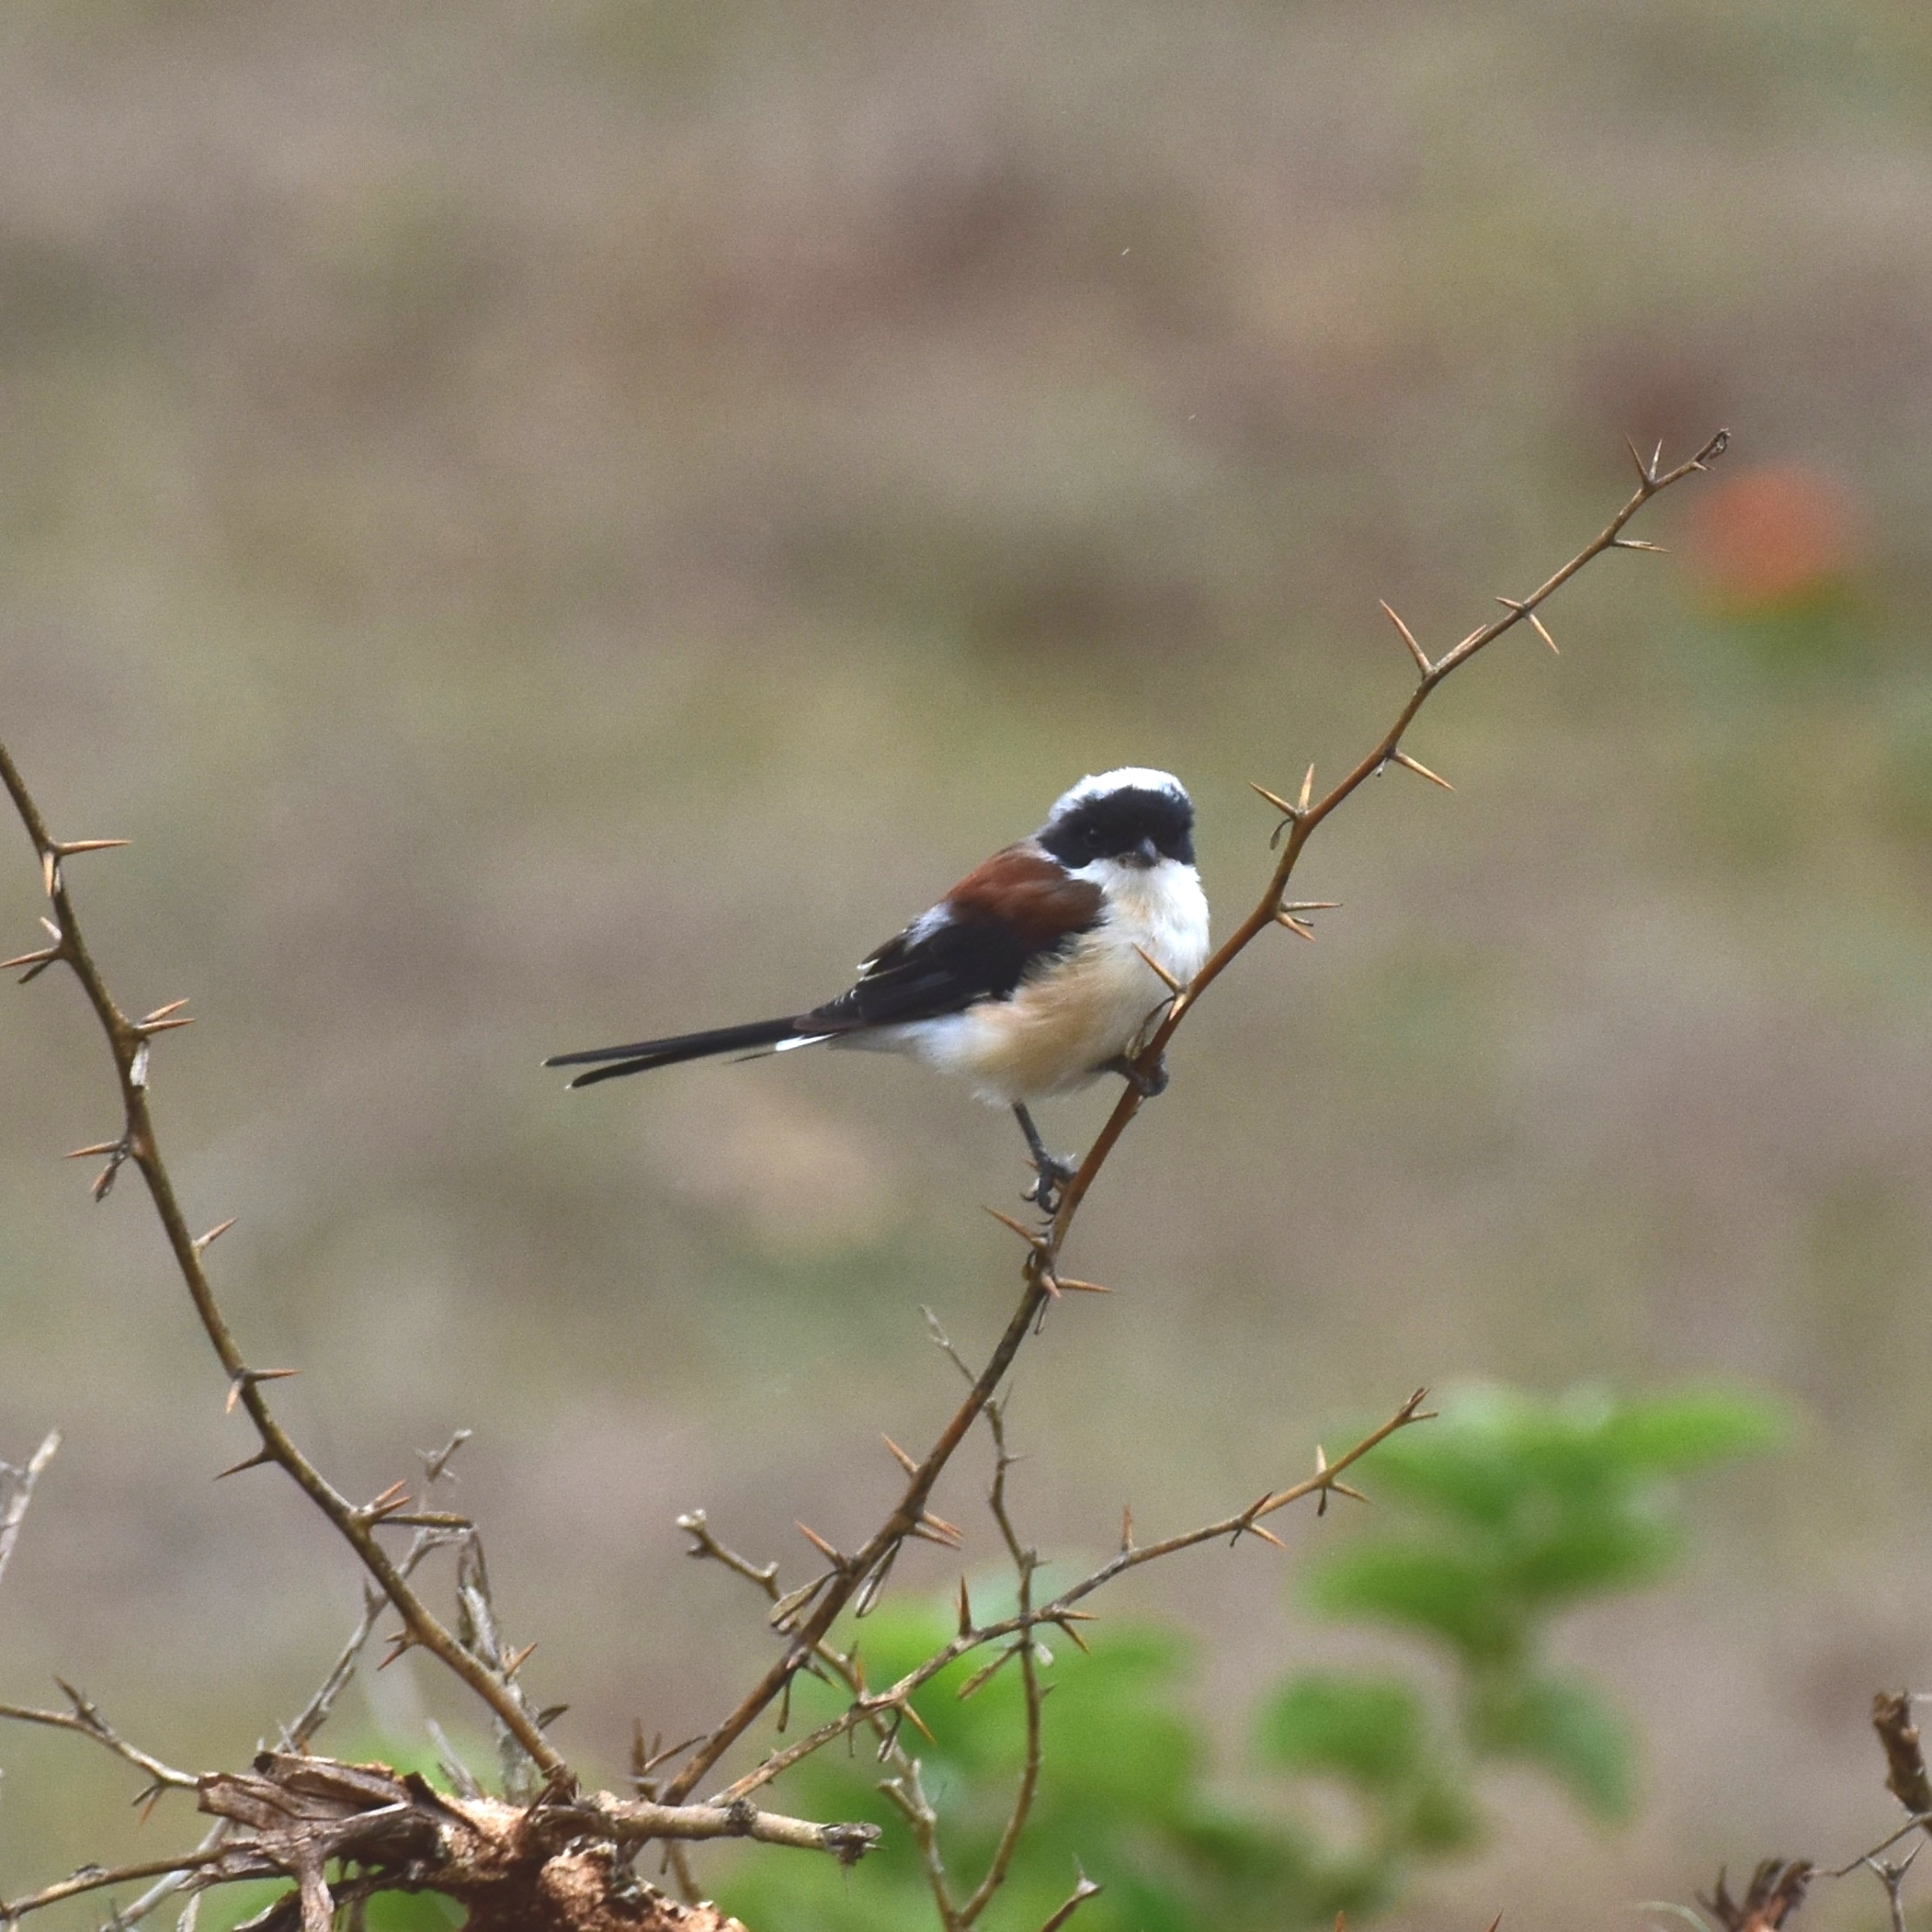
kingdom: Animalia
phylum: Chordata
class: Aves
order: Passeriformes
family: Laniidae
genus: Lanius
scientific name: Lanius vittatus
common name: Bay-backed shrike
